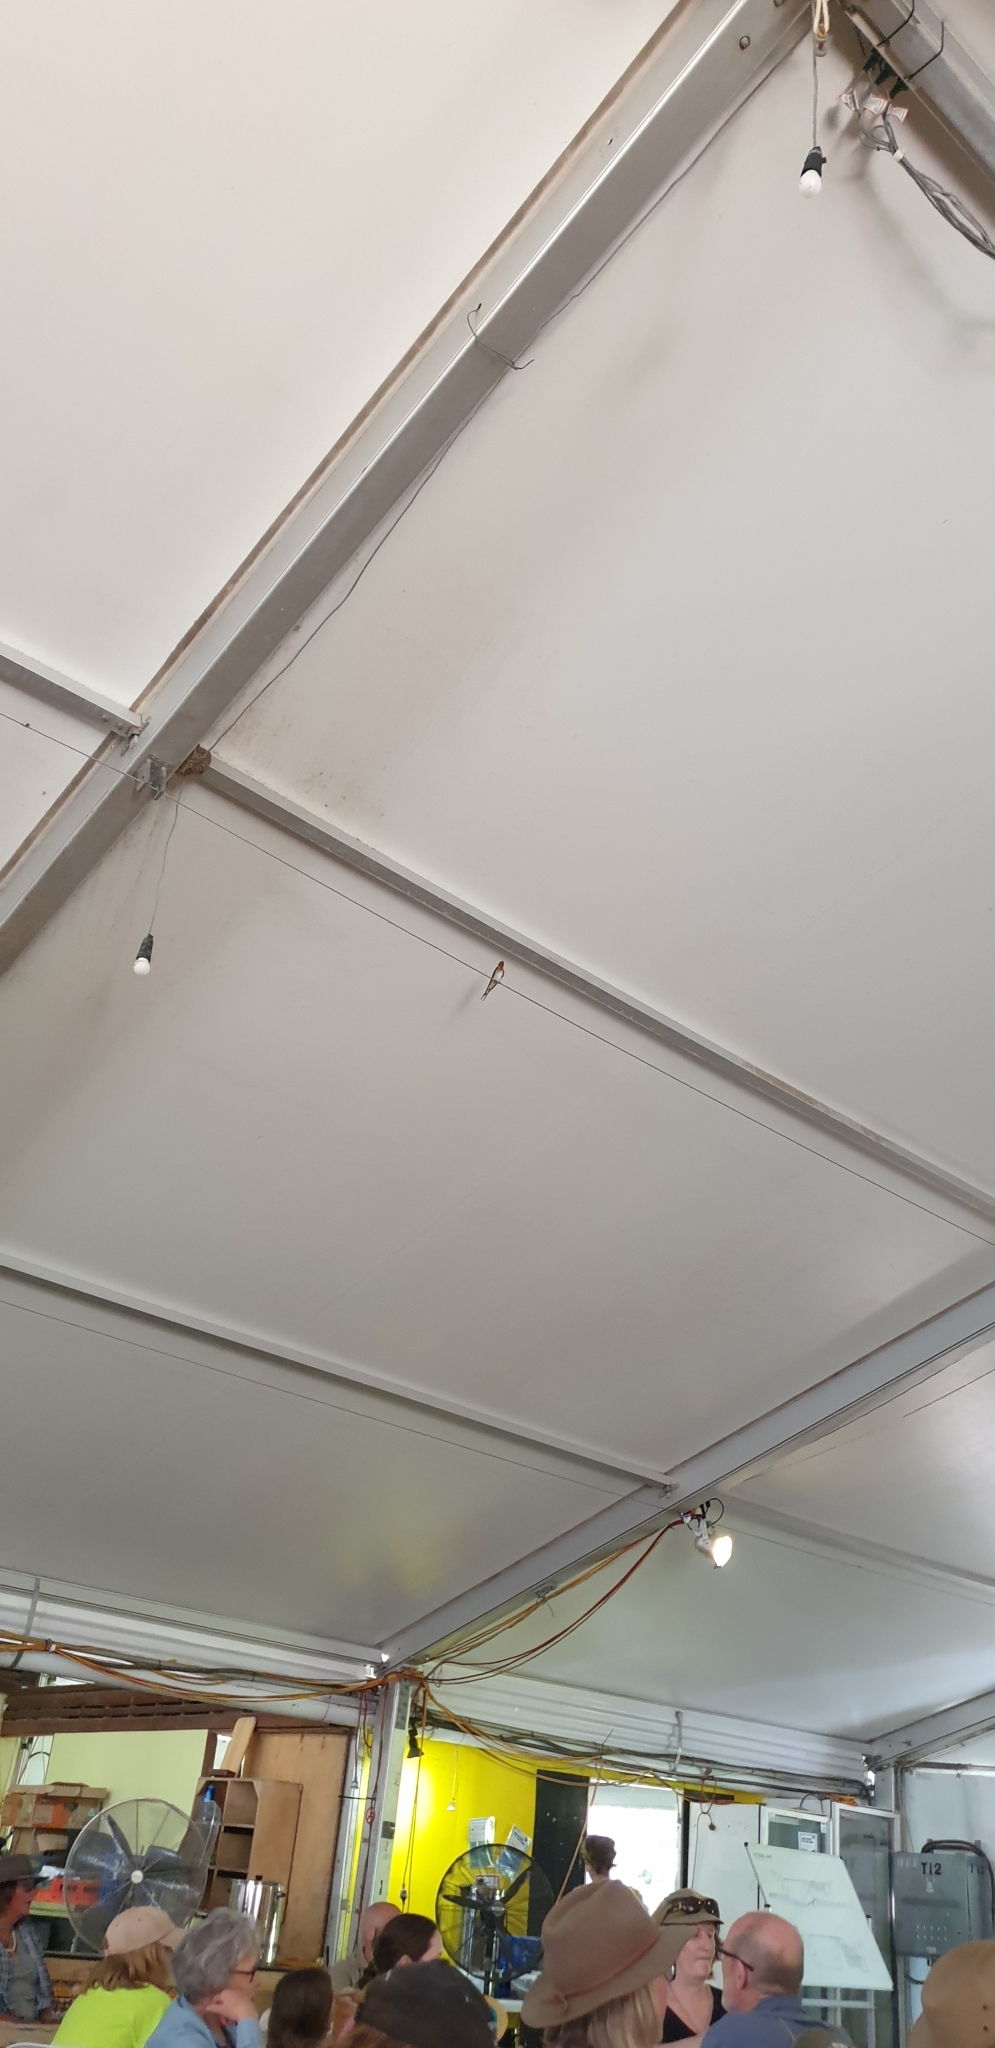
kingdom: Animalia
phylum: Chordata
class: Aves
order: Passeriformes
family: Hirundinidae
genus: Hirundo
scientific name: Hirundo neoxena
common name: Welcome swallow
